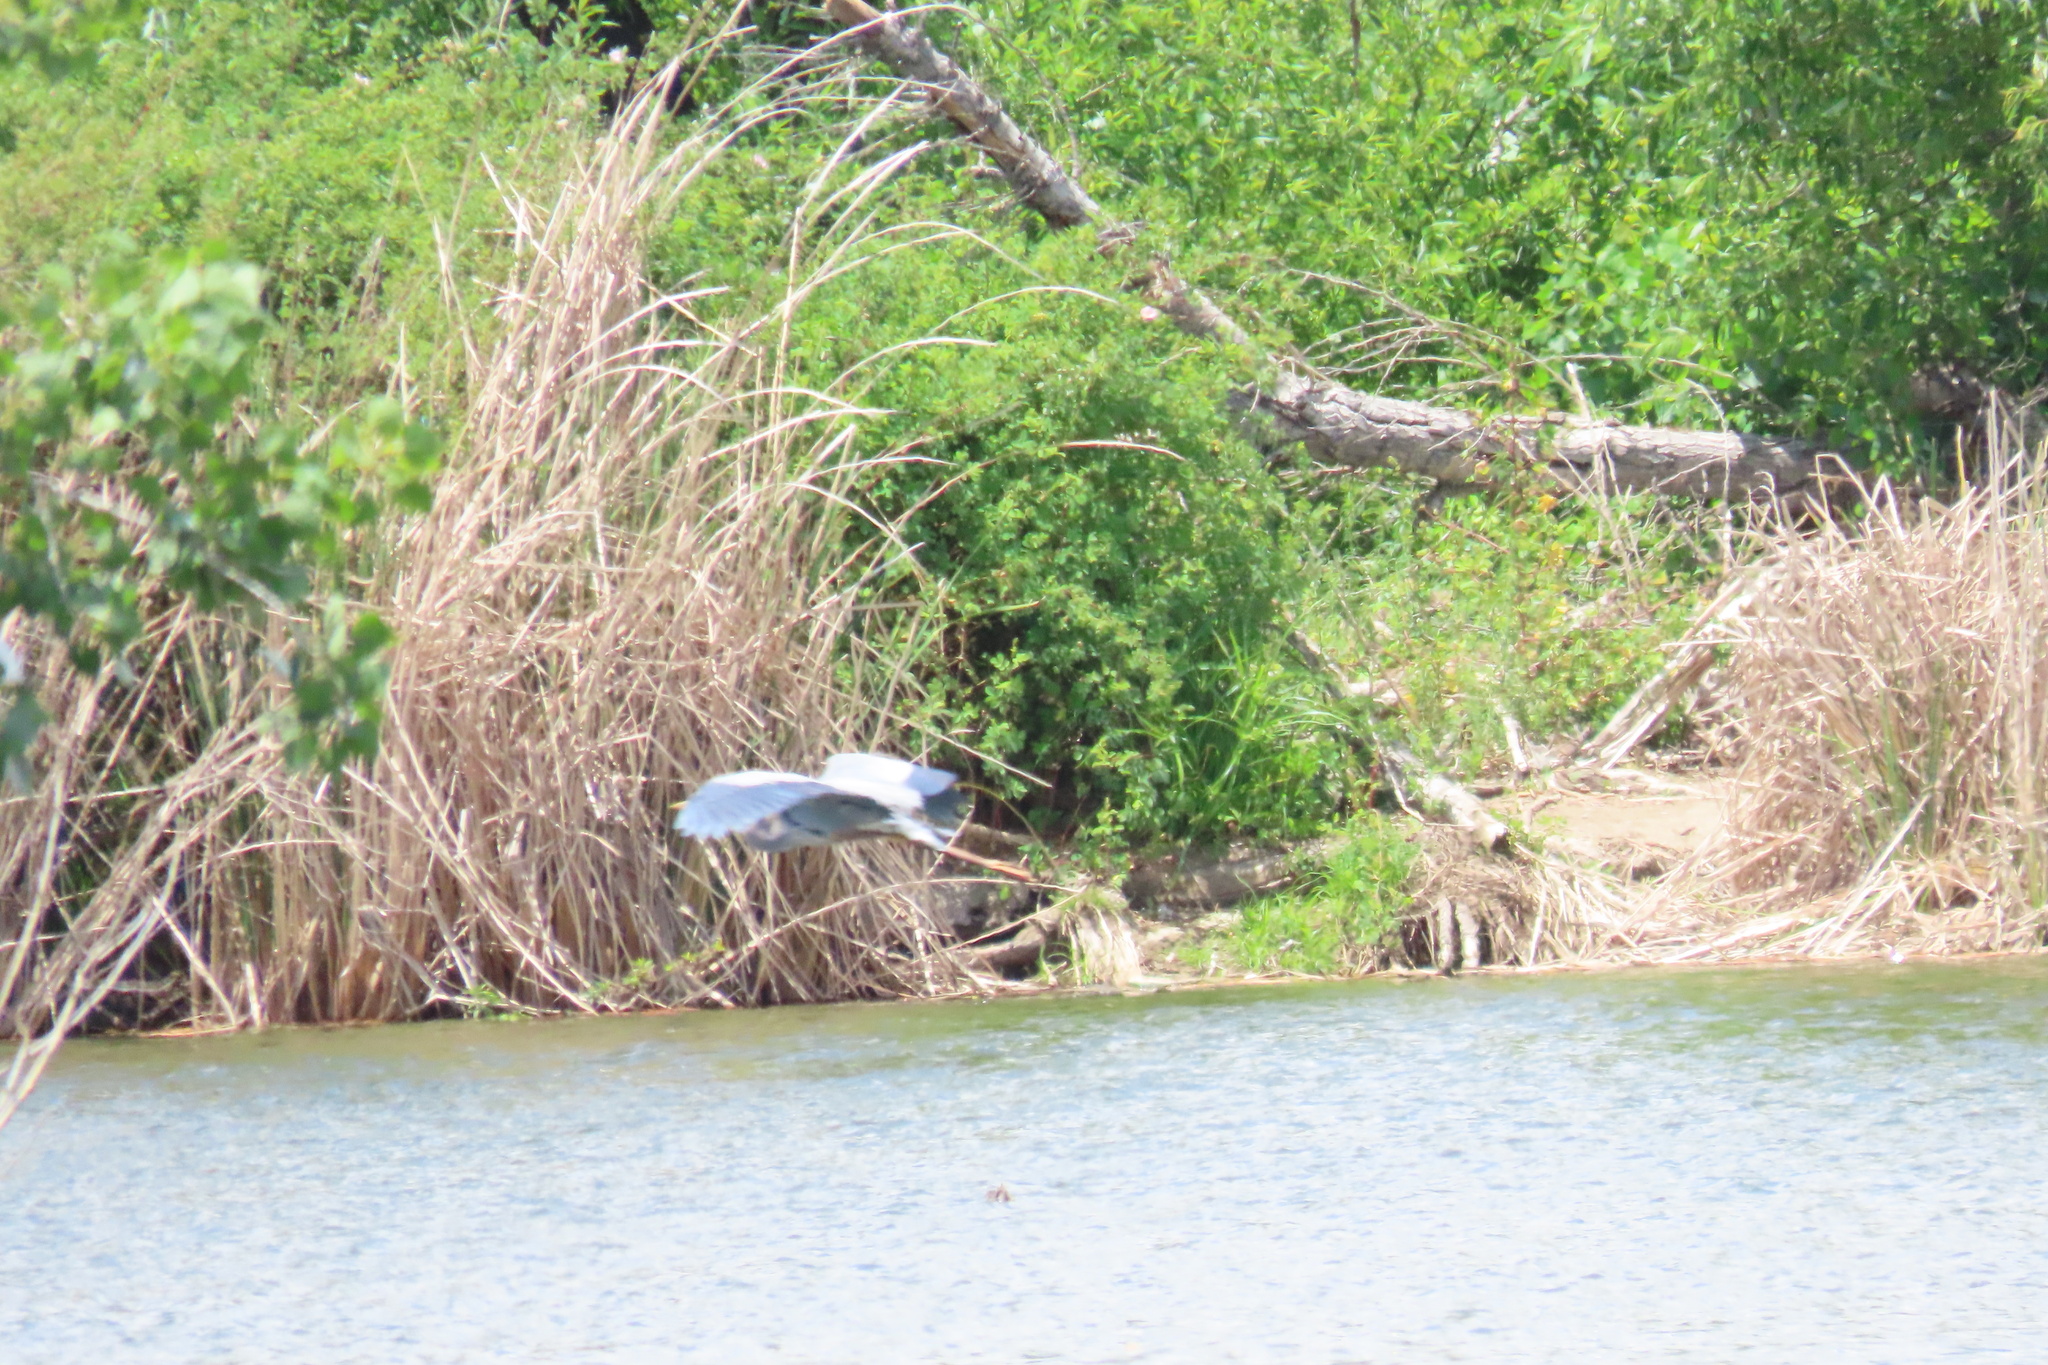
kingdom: Animalia
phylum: Chordata
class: Aves
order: Pelecaniformes
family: Ardeidae
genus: Ardea
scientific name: Ardea herodias
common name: Great blue heron
